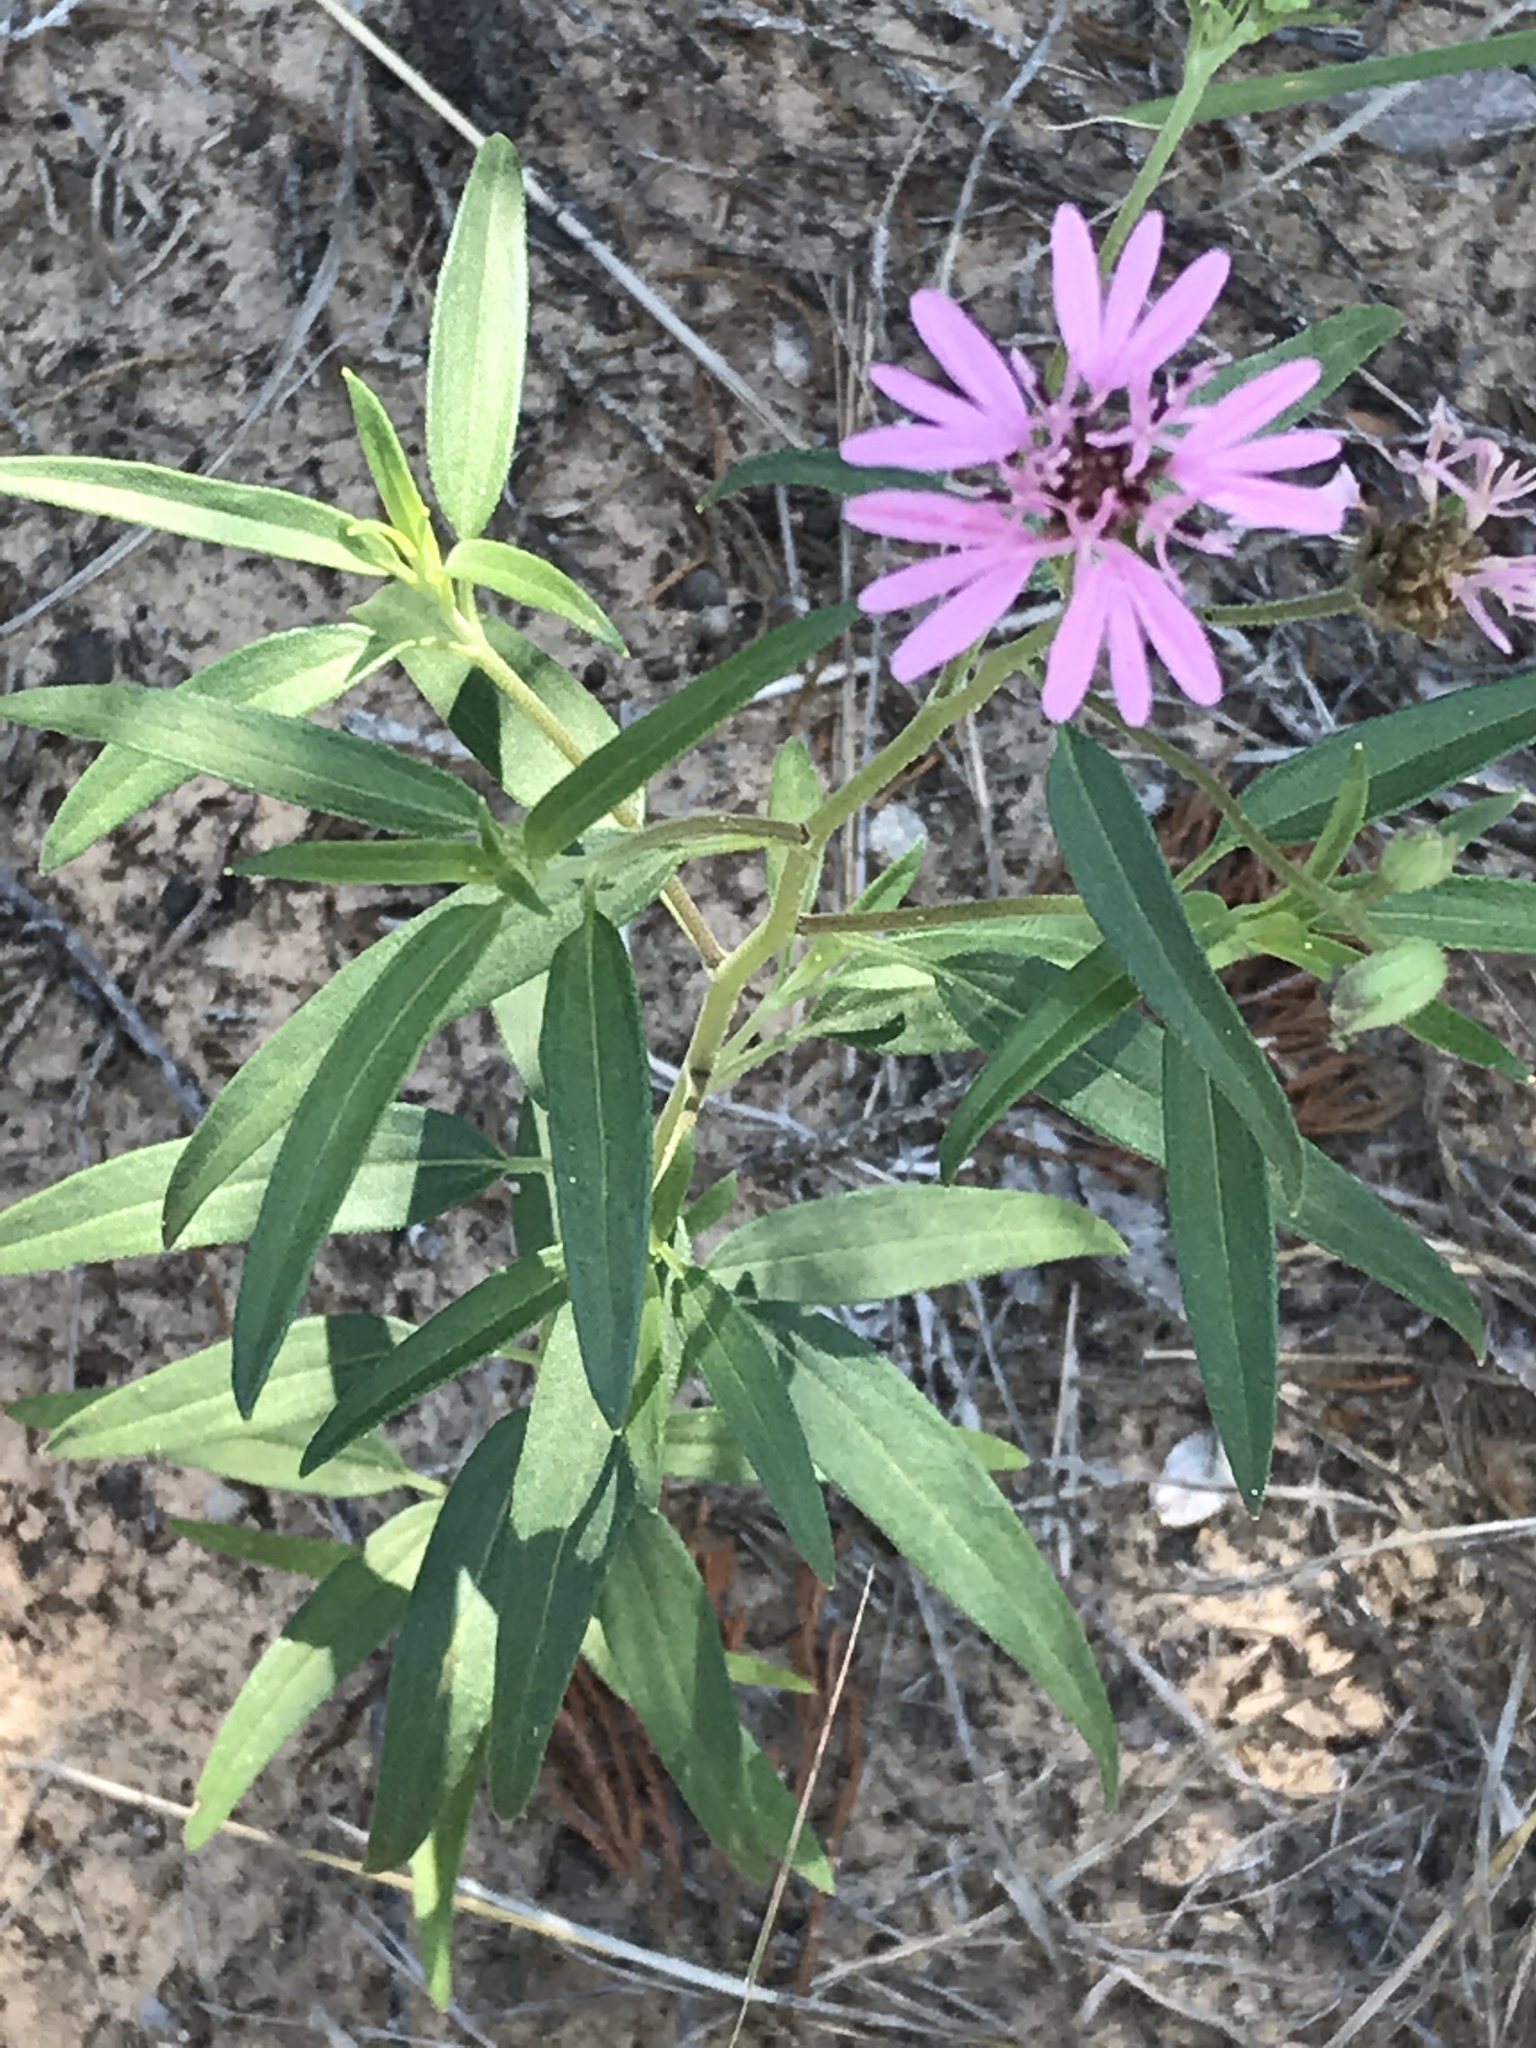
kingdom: Plantae
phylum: Tracheophyta
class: Magnoliopsida
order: Asterales
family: Asteraceae
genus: Palafoxia
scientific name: Palafoxia sphacelata
